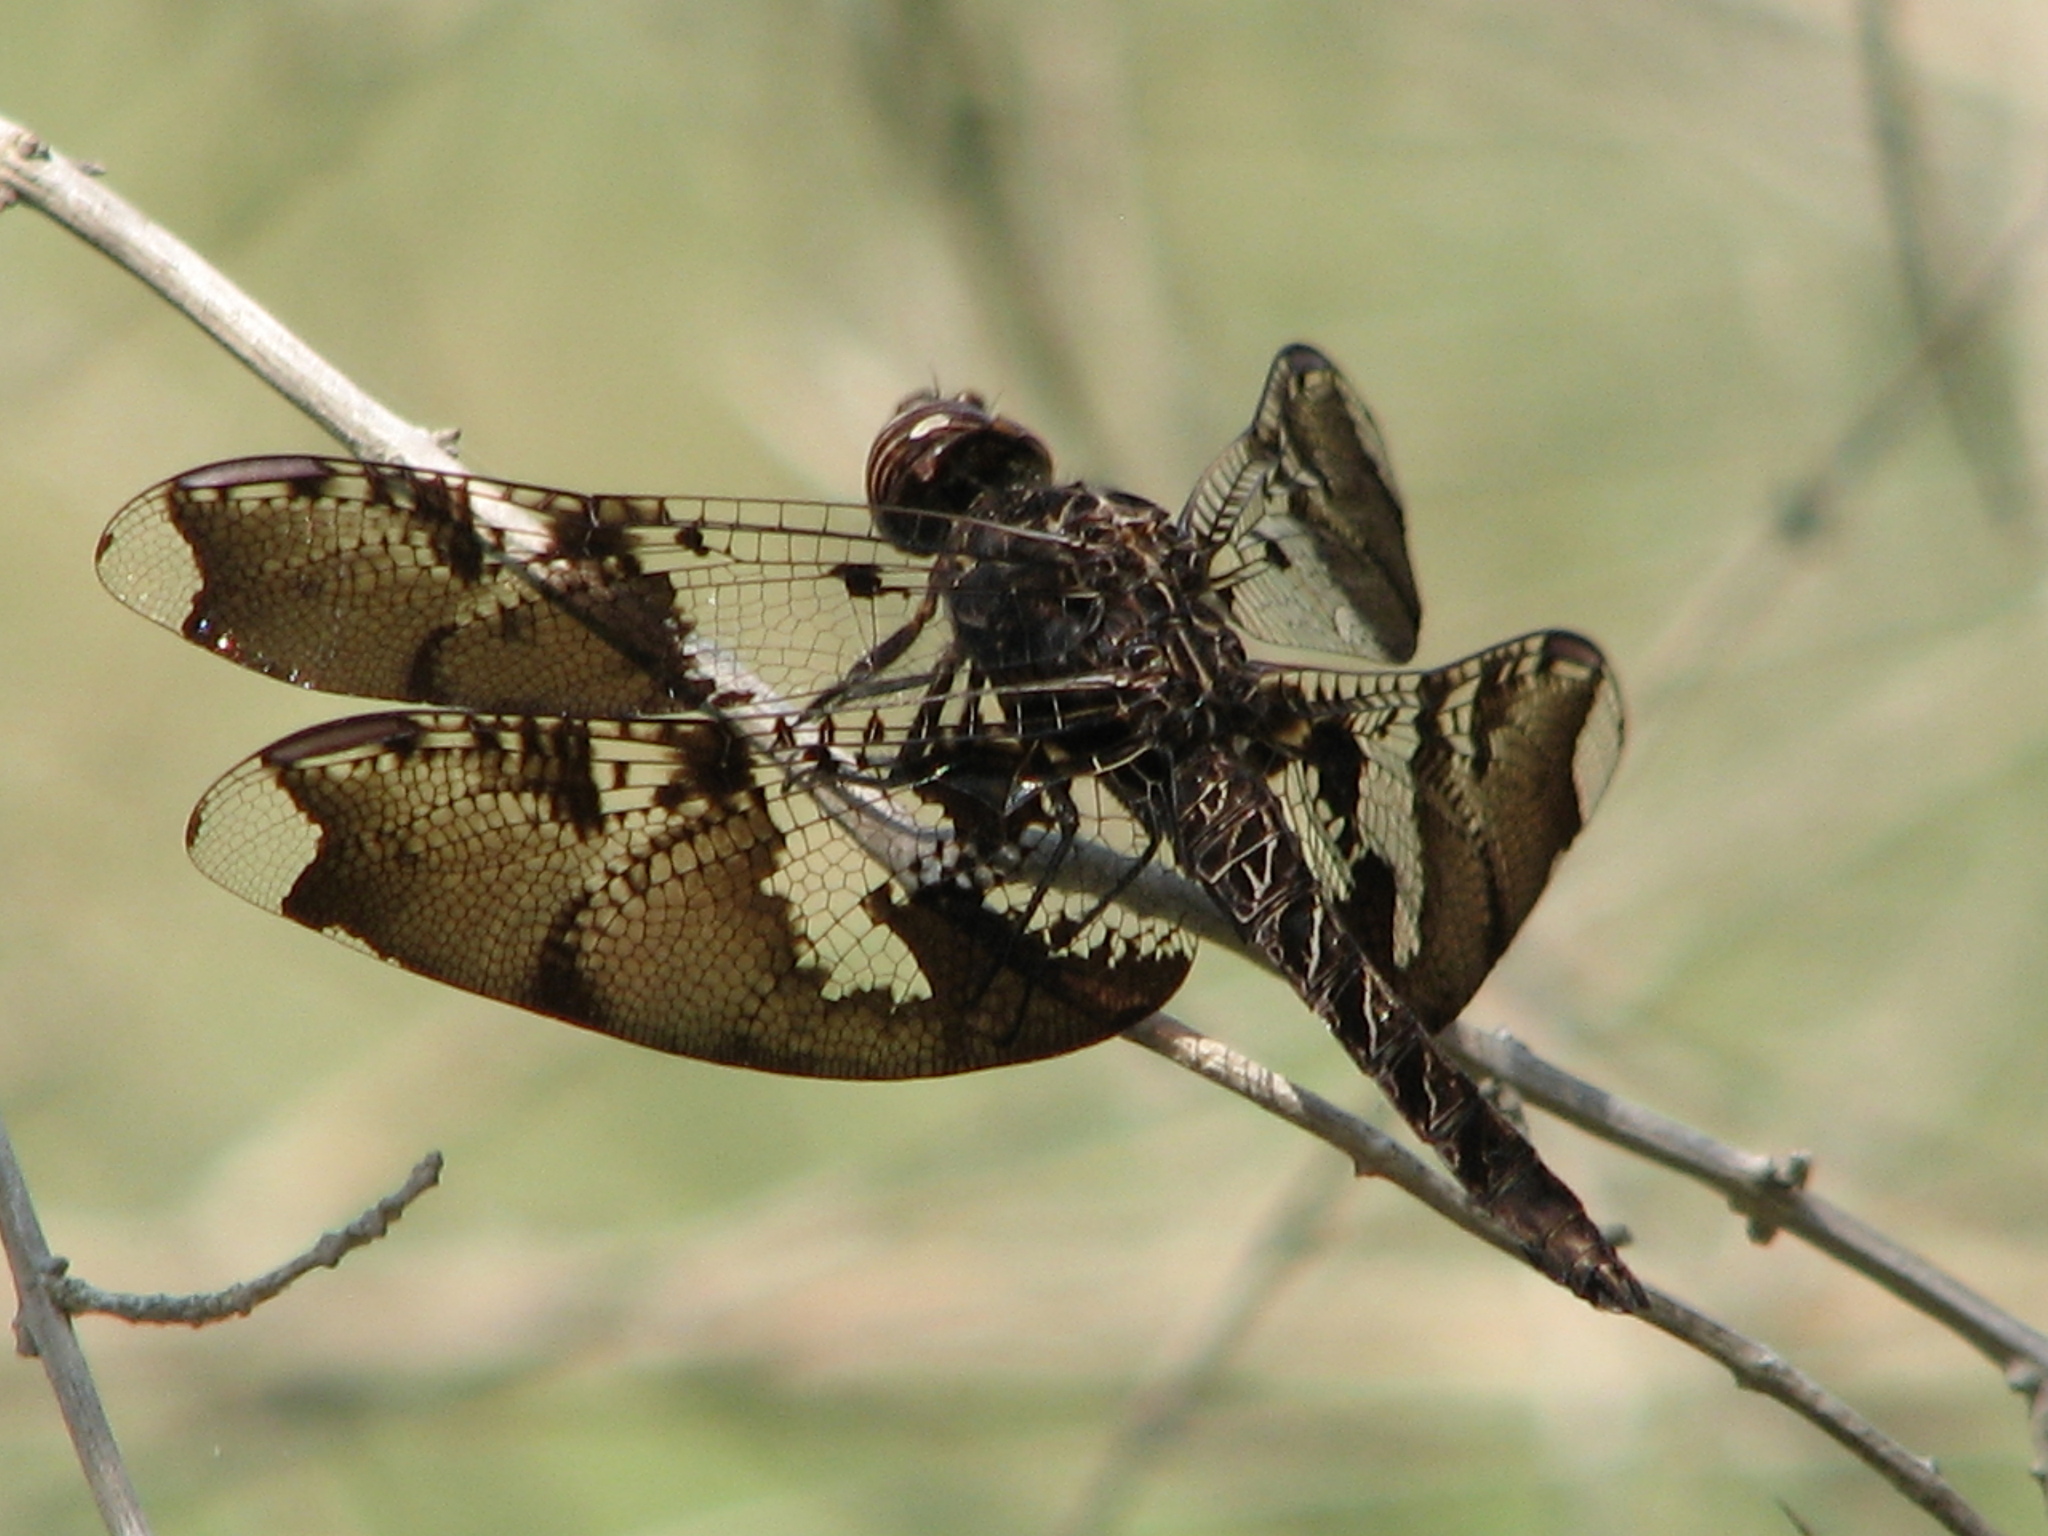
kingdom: Animalia
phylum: Arthropoda
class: Insecta
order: Odonata
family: Libellulidae
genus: Pseudoleon
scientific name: Pseudoleon superbus
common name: Filigree skimmer
